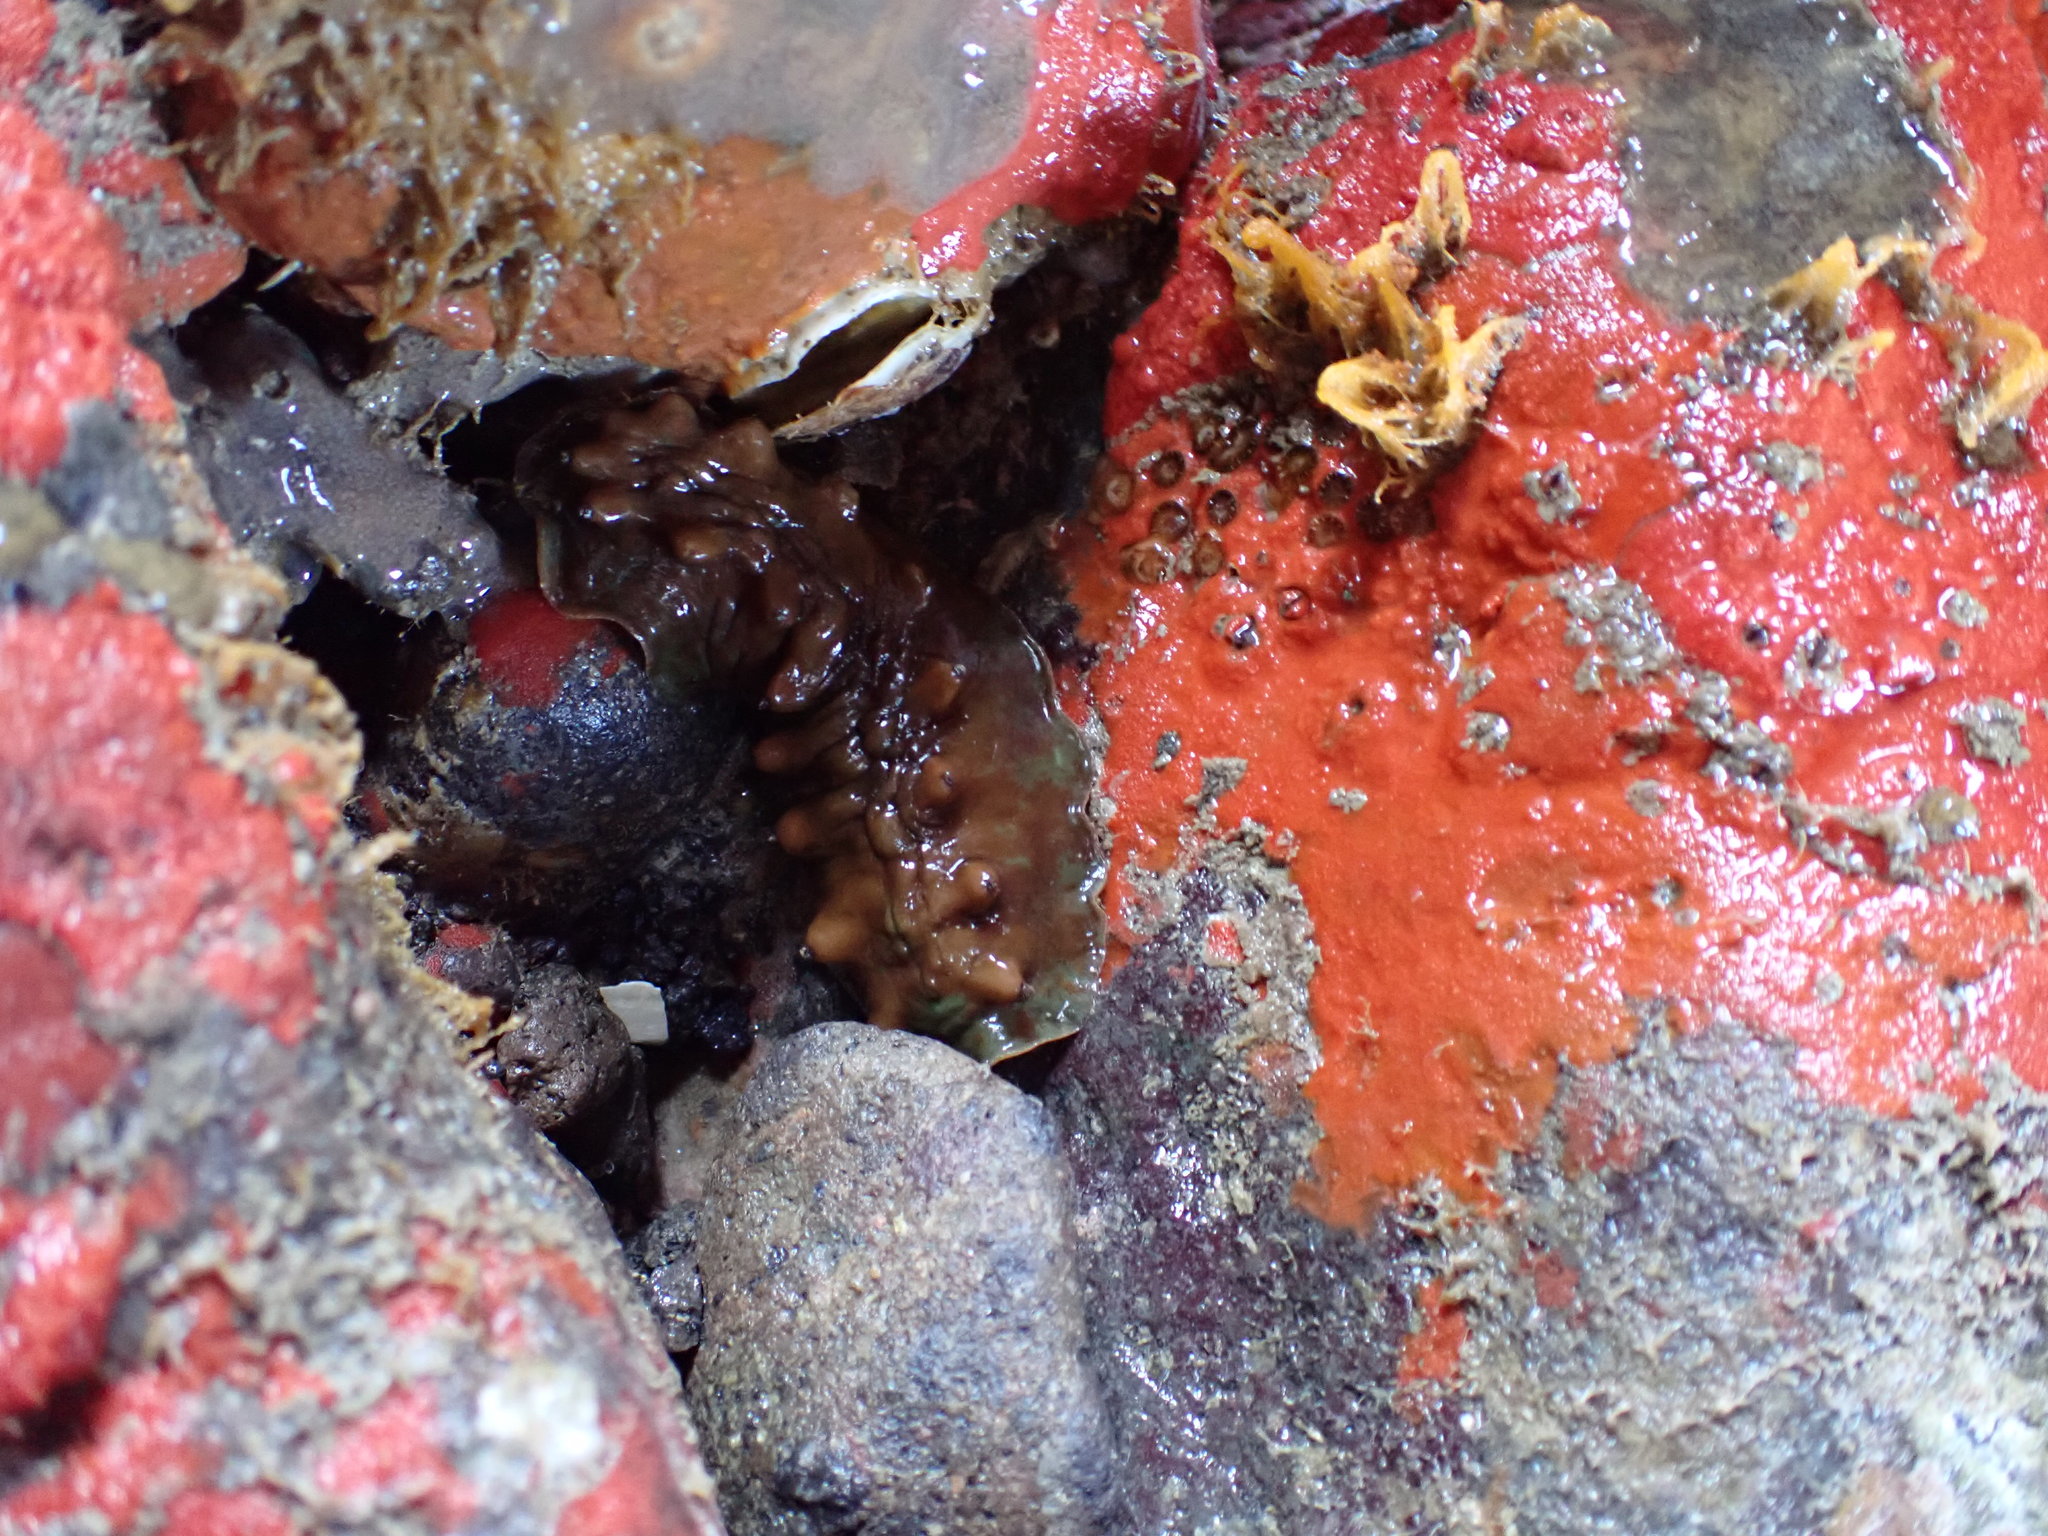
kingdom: Animalia
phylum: Mollusca
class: Polyplacophora
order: Chitonida
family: Acanthochitonidae
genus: Cryptoconchus
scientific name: Cryptoconchus porosus
